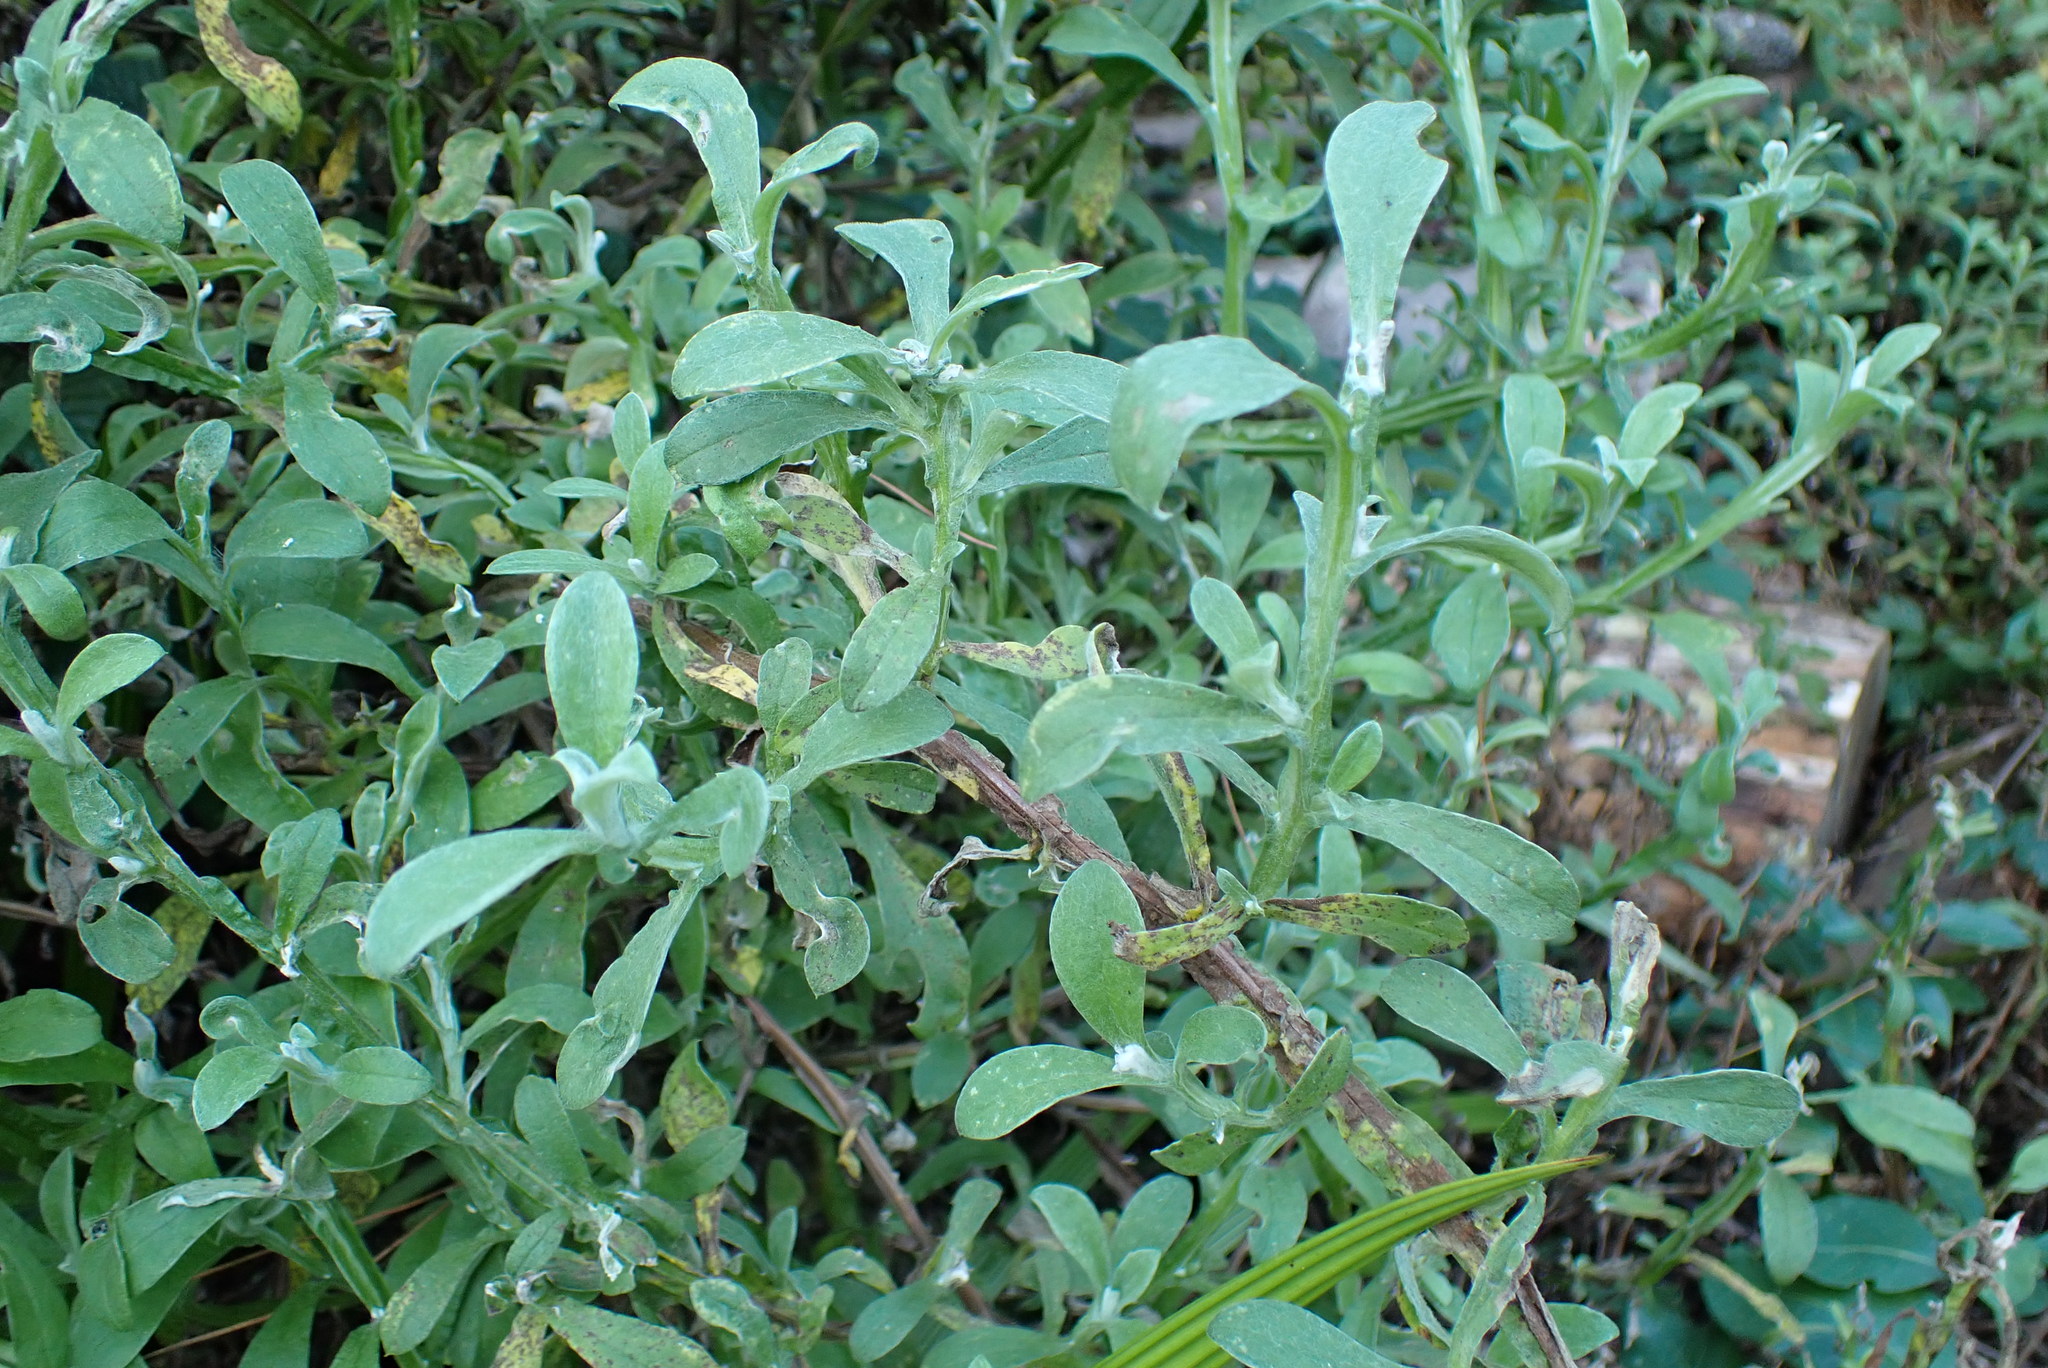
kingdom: Plantae
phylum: Tracheophyta
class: Magnoliopsida
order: Asterales
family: Asteraceae
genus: Helichrysum
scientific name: Helichrysum odoratissimum
